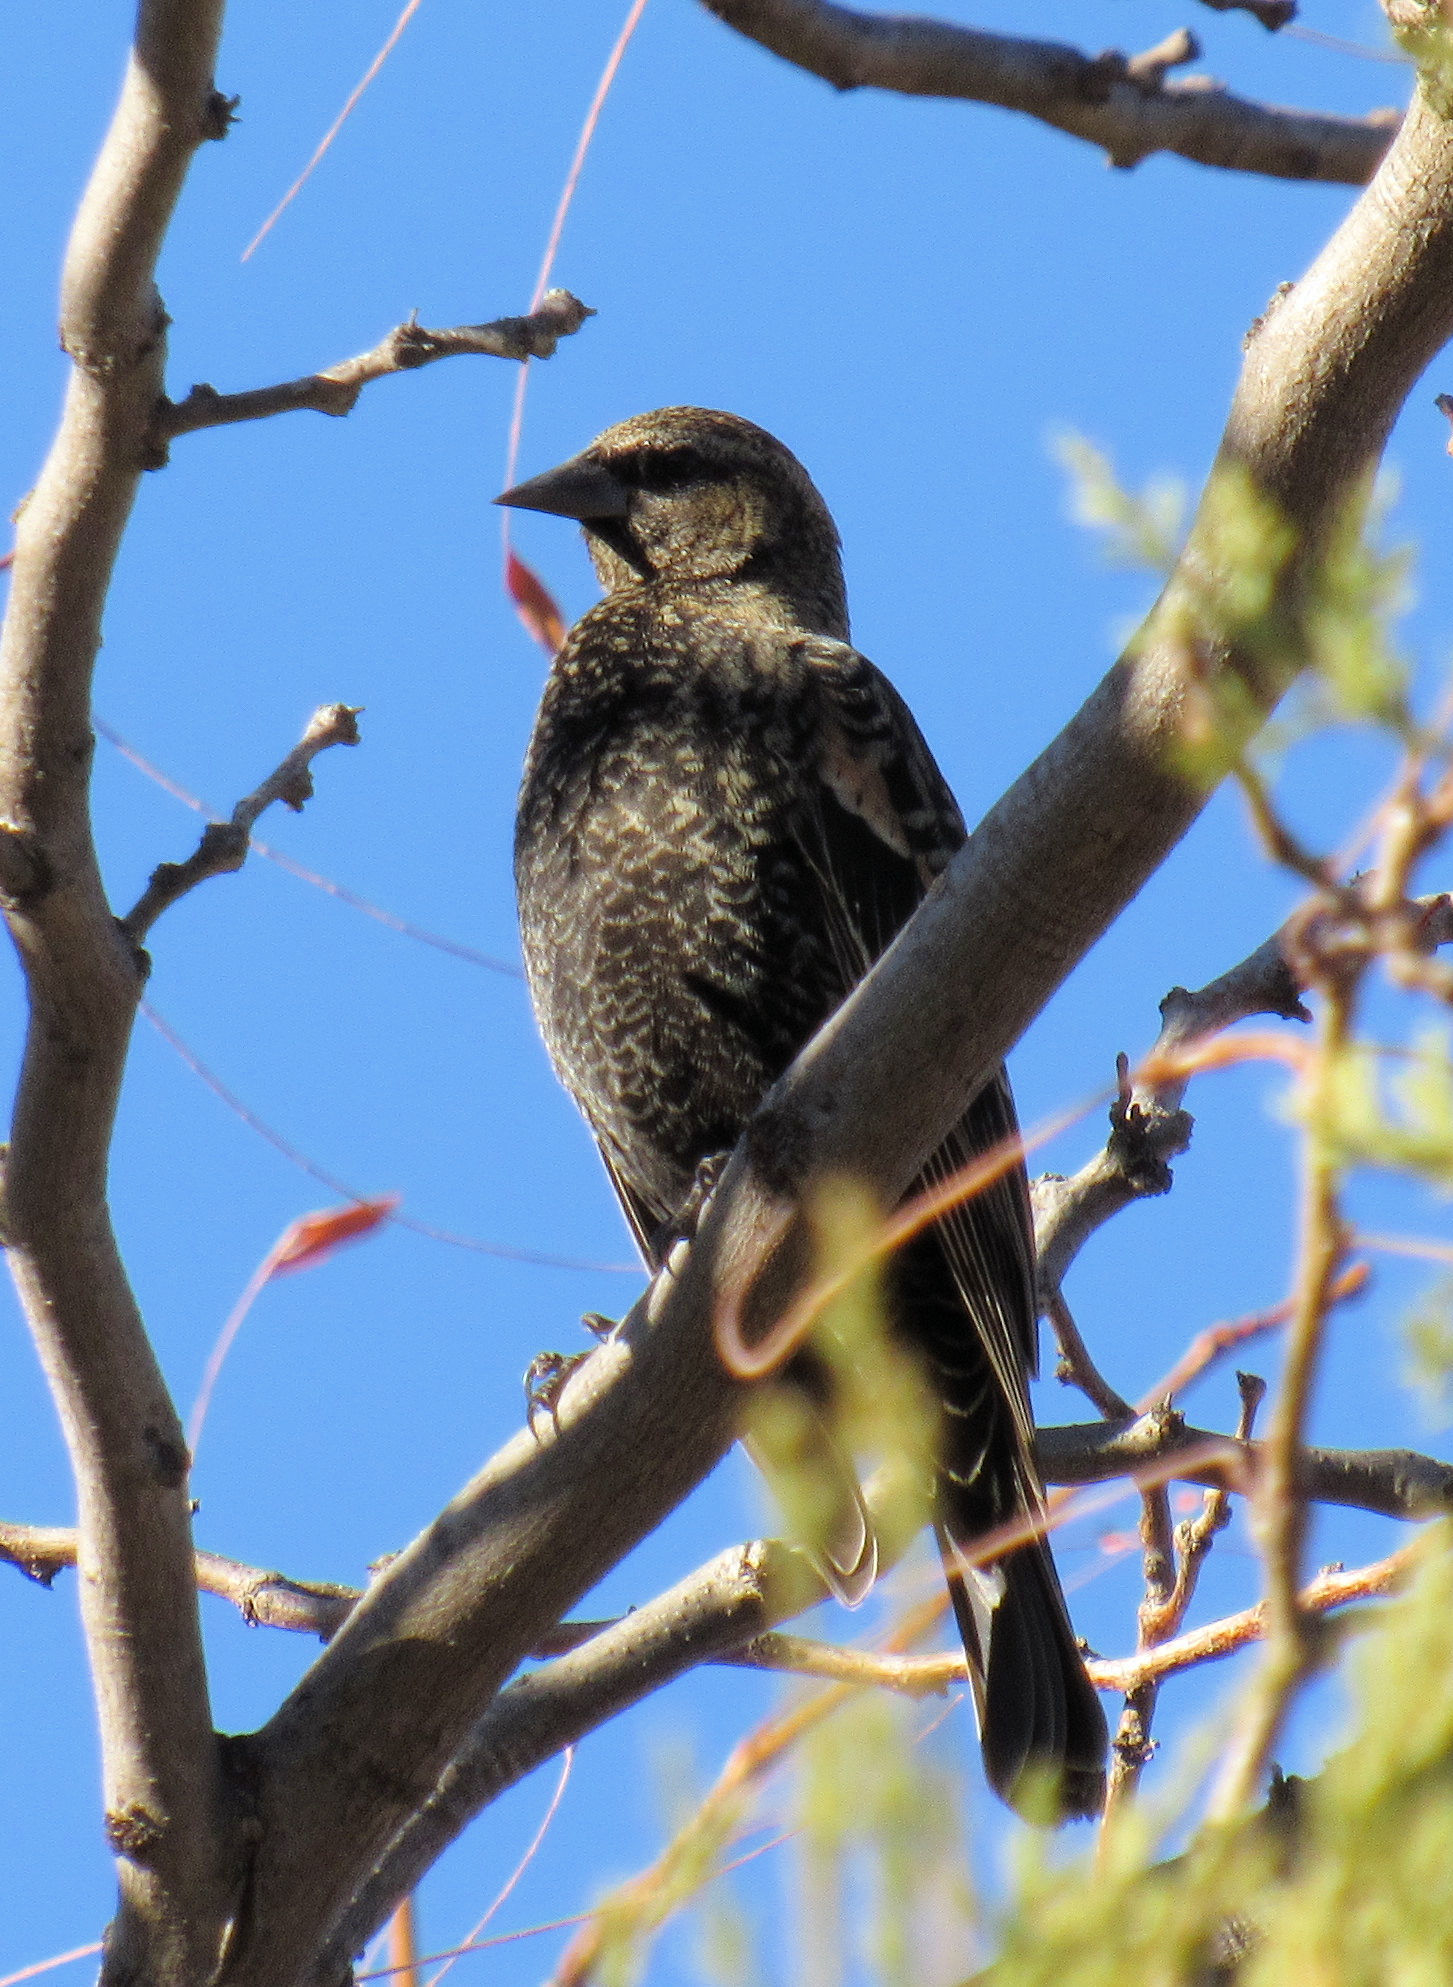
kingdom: Animalia
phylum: Chordata
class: Aves
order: Passeriformes
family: Icteridae
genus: Agelaius
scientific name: Agelaius phoeniceus
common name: Red-winged blackbird
